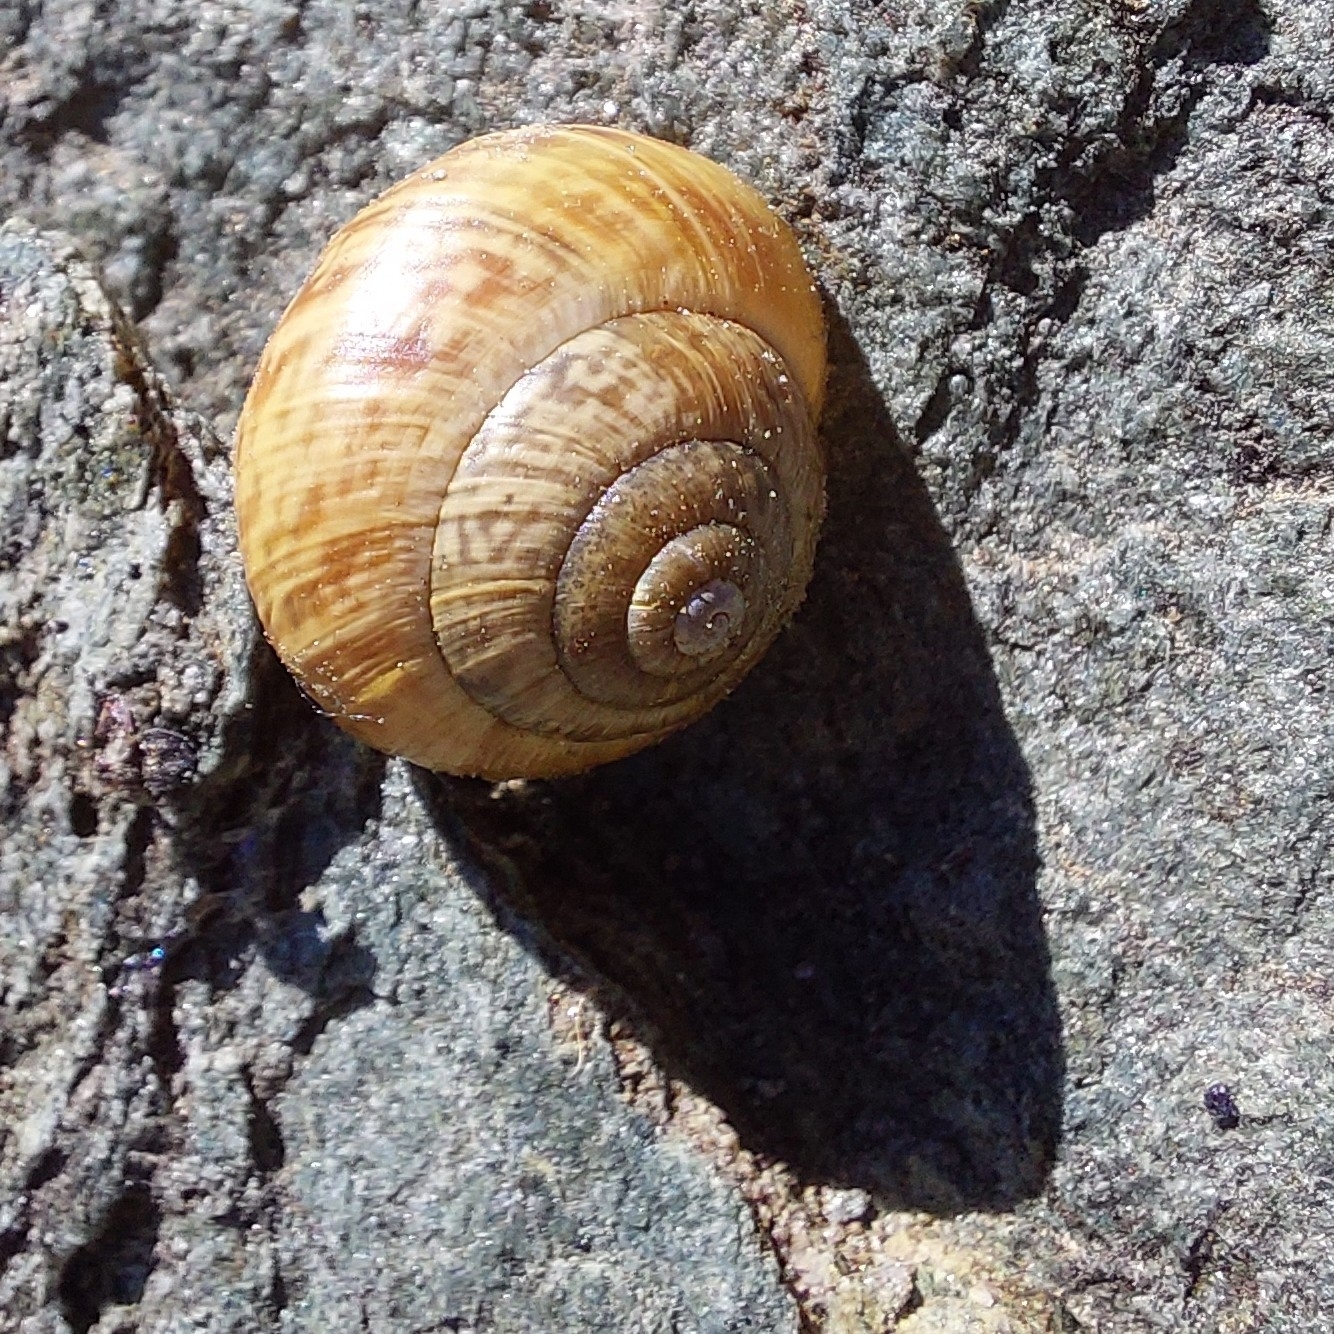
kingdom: Animalia
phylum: Mollusca
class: Gastropoda
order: Stylommatophora
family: Helicidae
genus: Arianta
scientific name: Arianta arbustorum
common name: Copse snail
